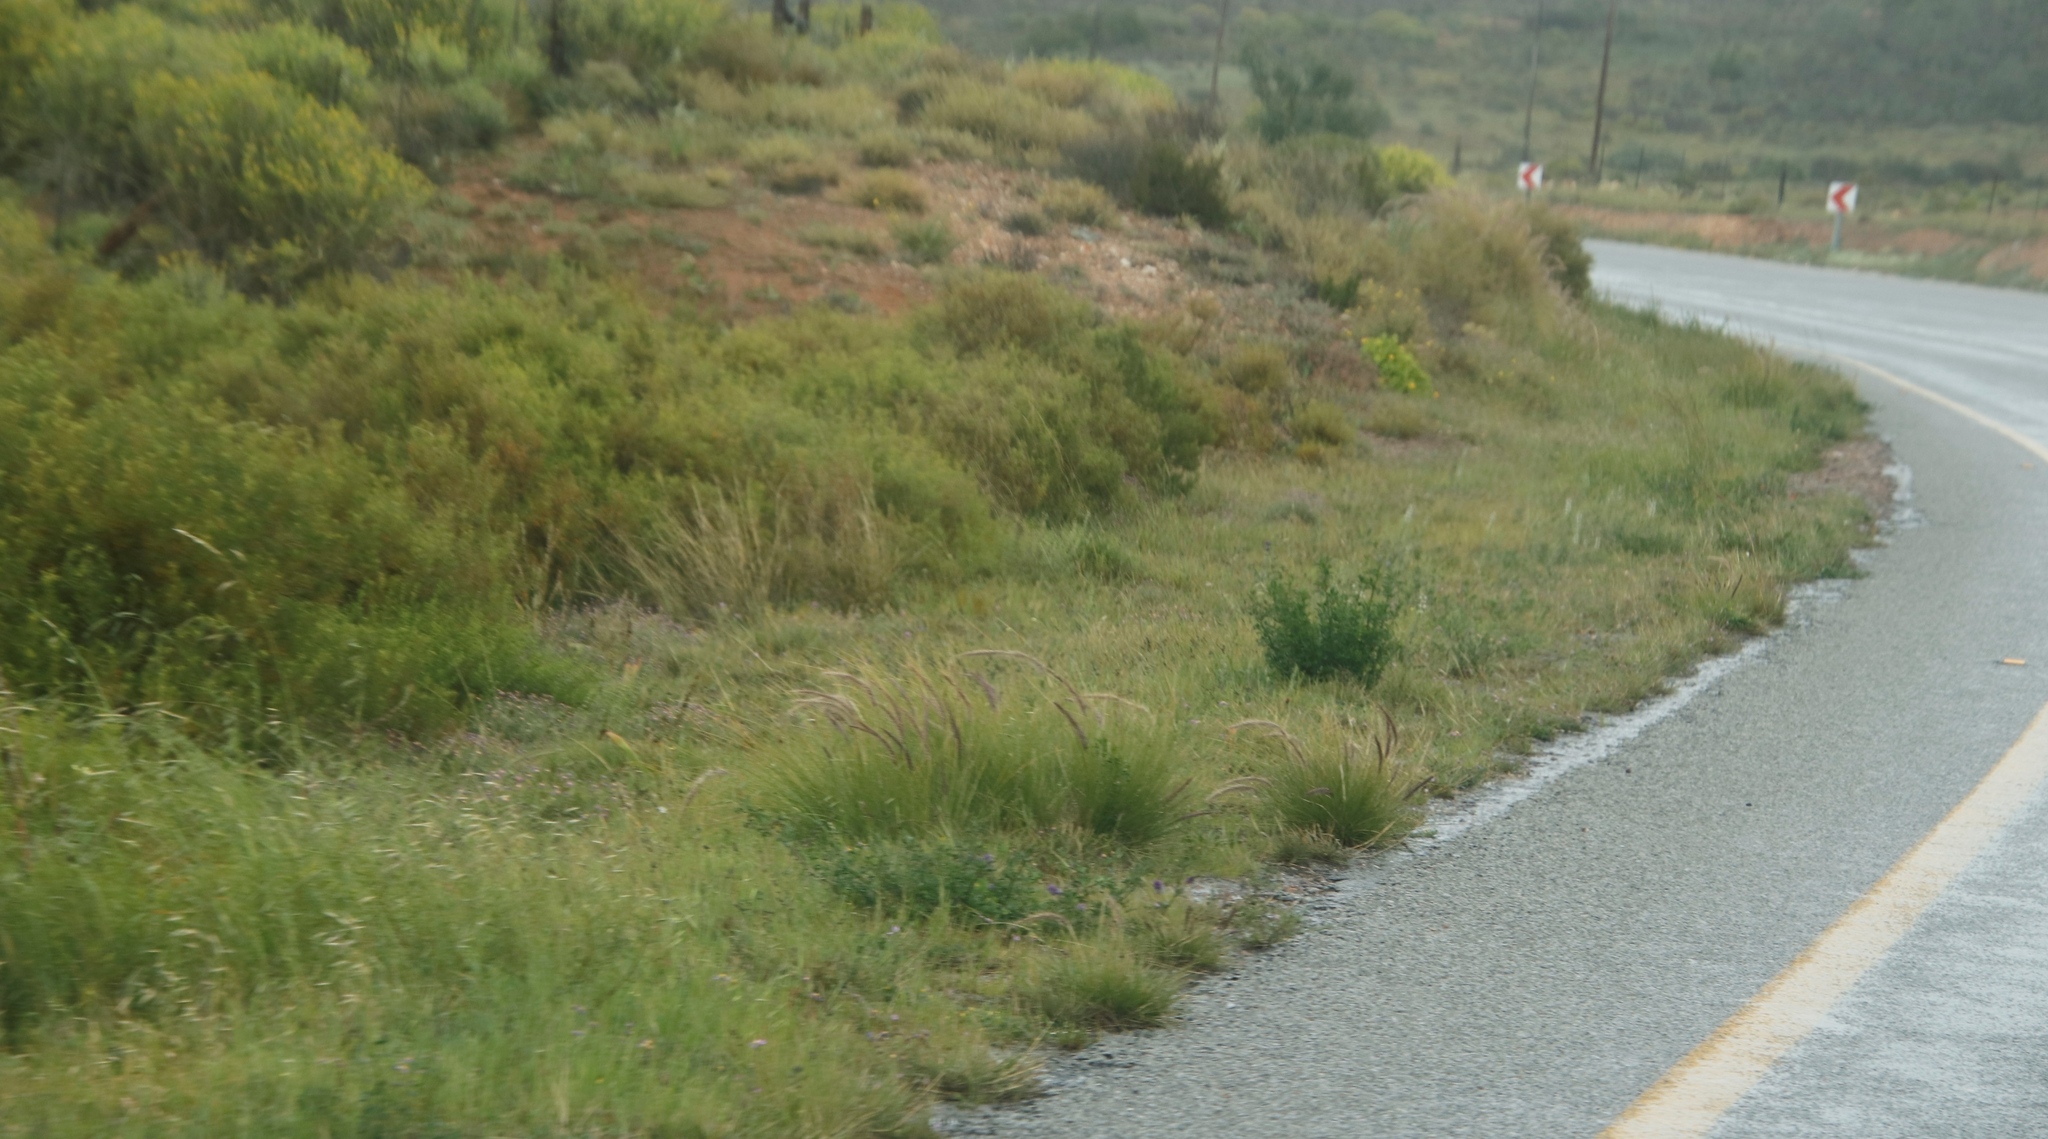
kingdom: Plantae
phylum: Tracheophyta
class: Liliopsida
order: Poales
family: Poaceae
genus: Cenchrus
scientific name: Cenchrus setaceus
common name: Crimson fountaingrass
